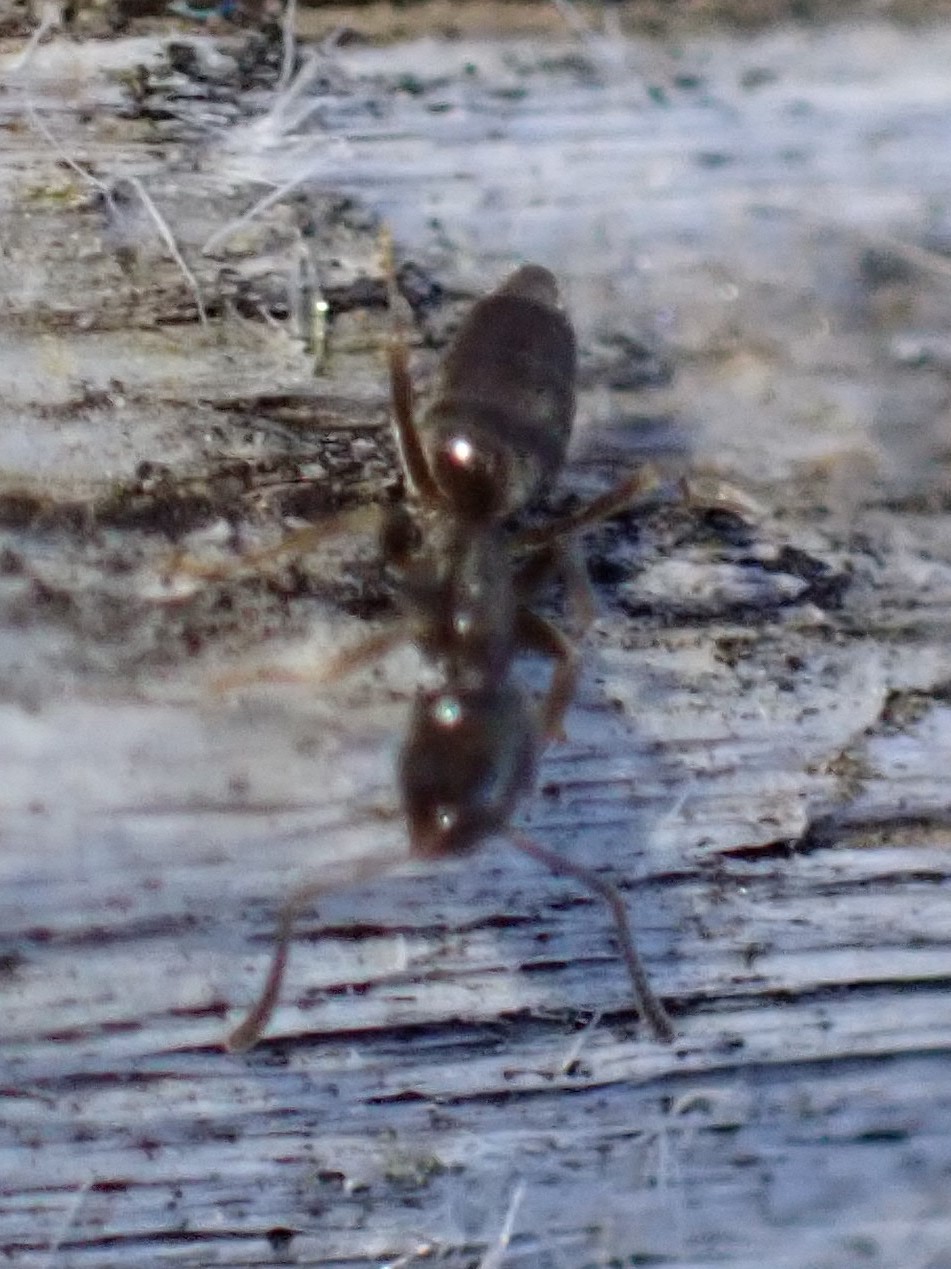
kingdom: Animalia
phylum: Arthropoda
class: Insecta
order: Hymenoptera
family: Formicidae
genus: Tapinoma
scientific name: Tapinoma sessile
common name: Odorous house ant
